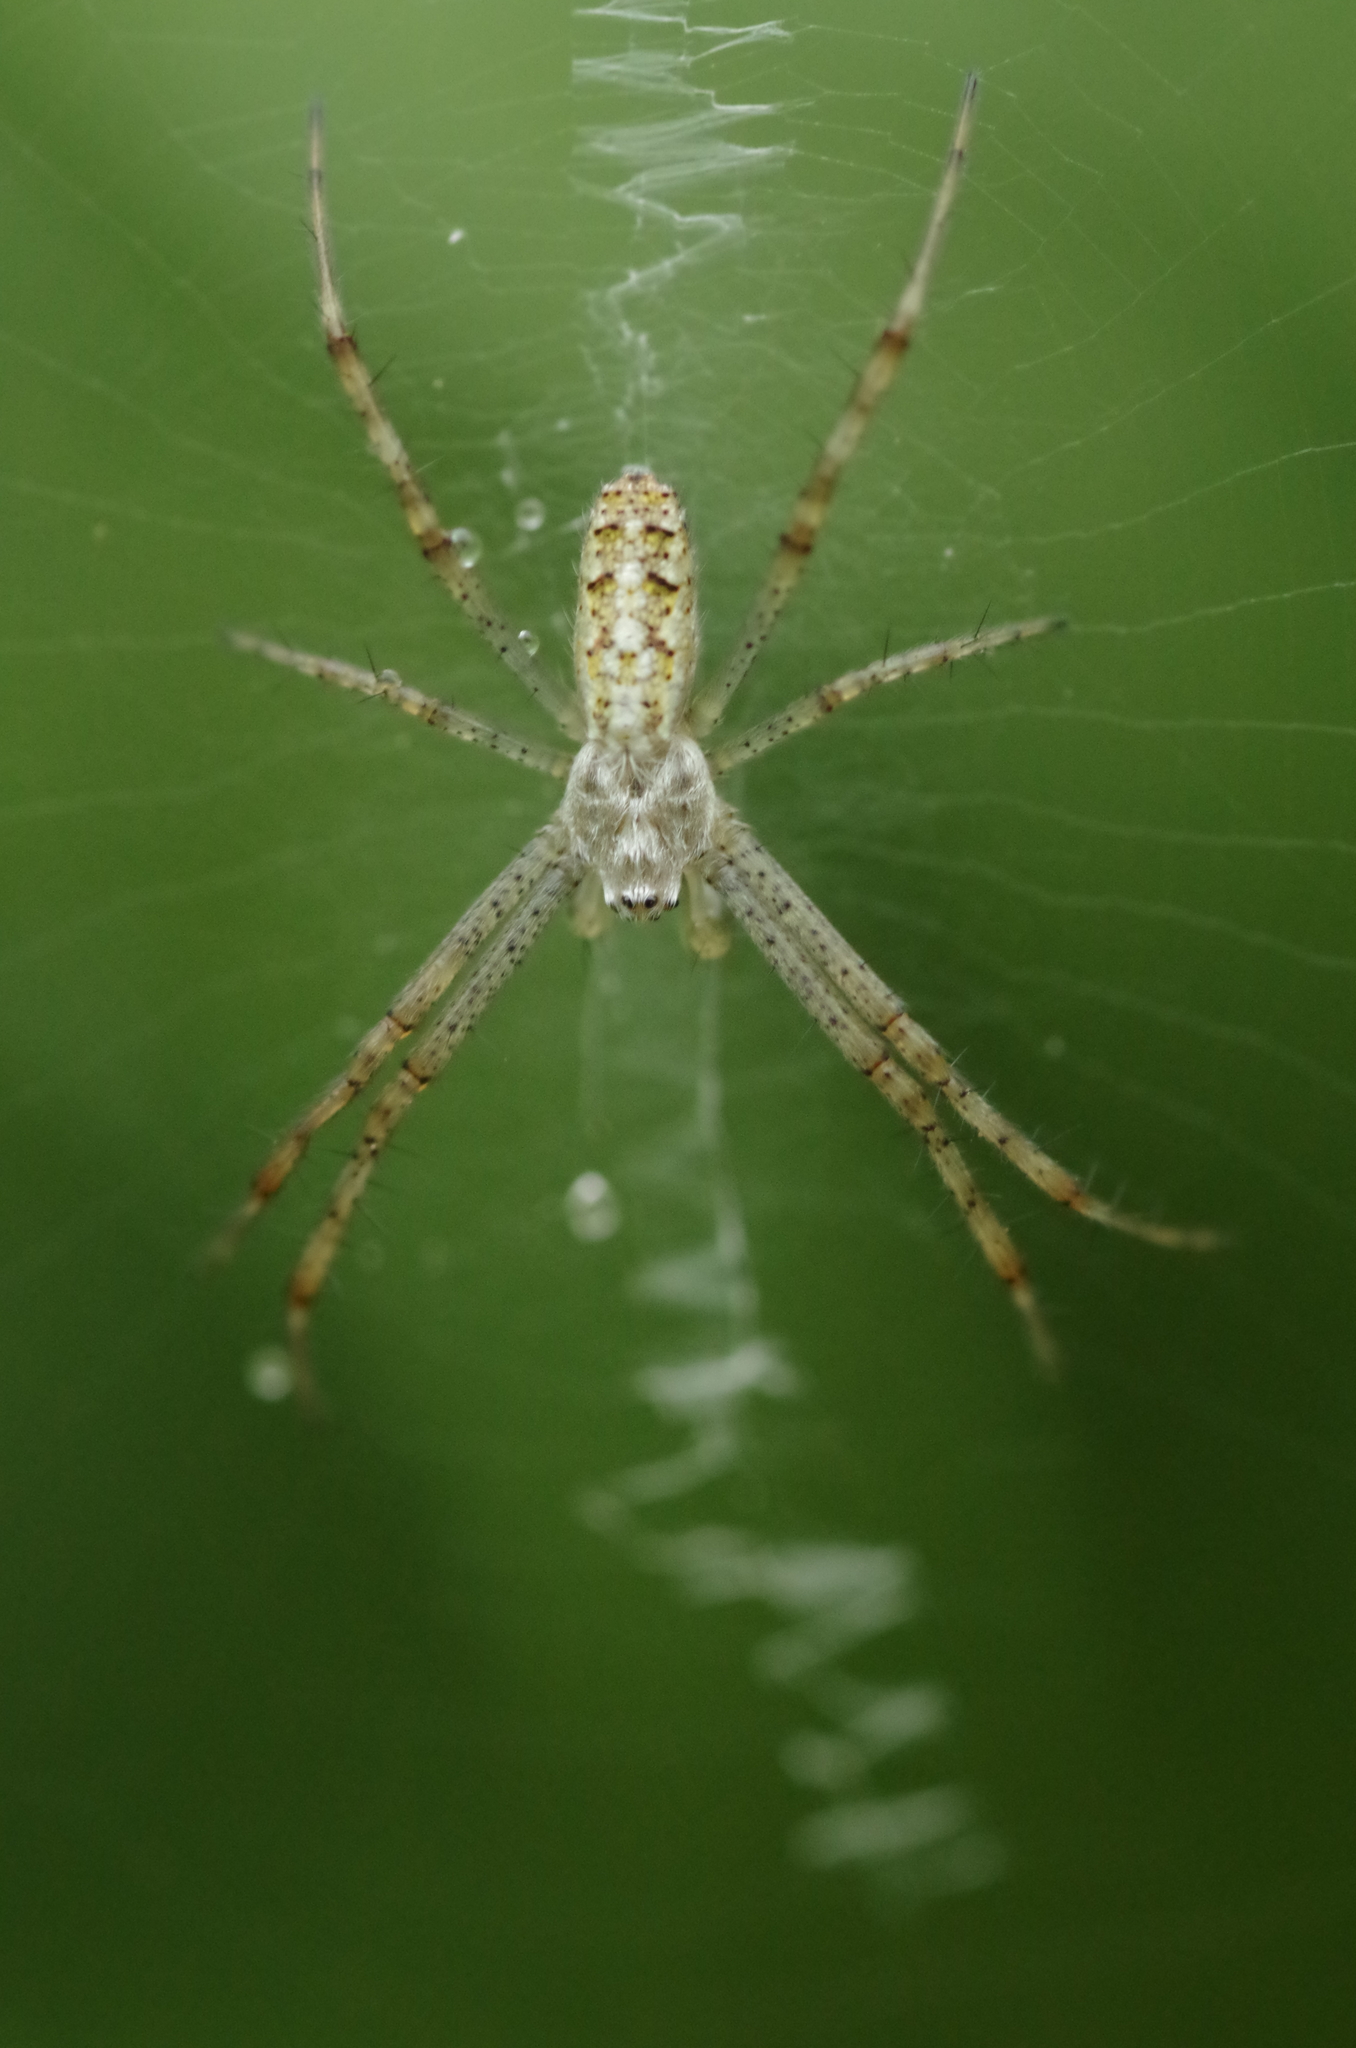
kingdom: Animalia
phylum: Arthropoda
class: Arachnida
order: Araneae
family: Araneidae
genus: Argiope
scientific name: Argiope bruennichi
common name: Wasp spider
